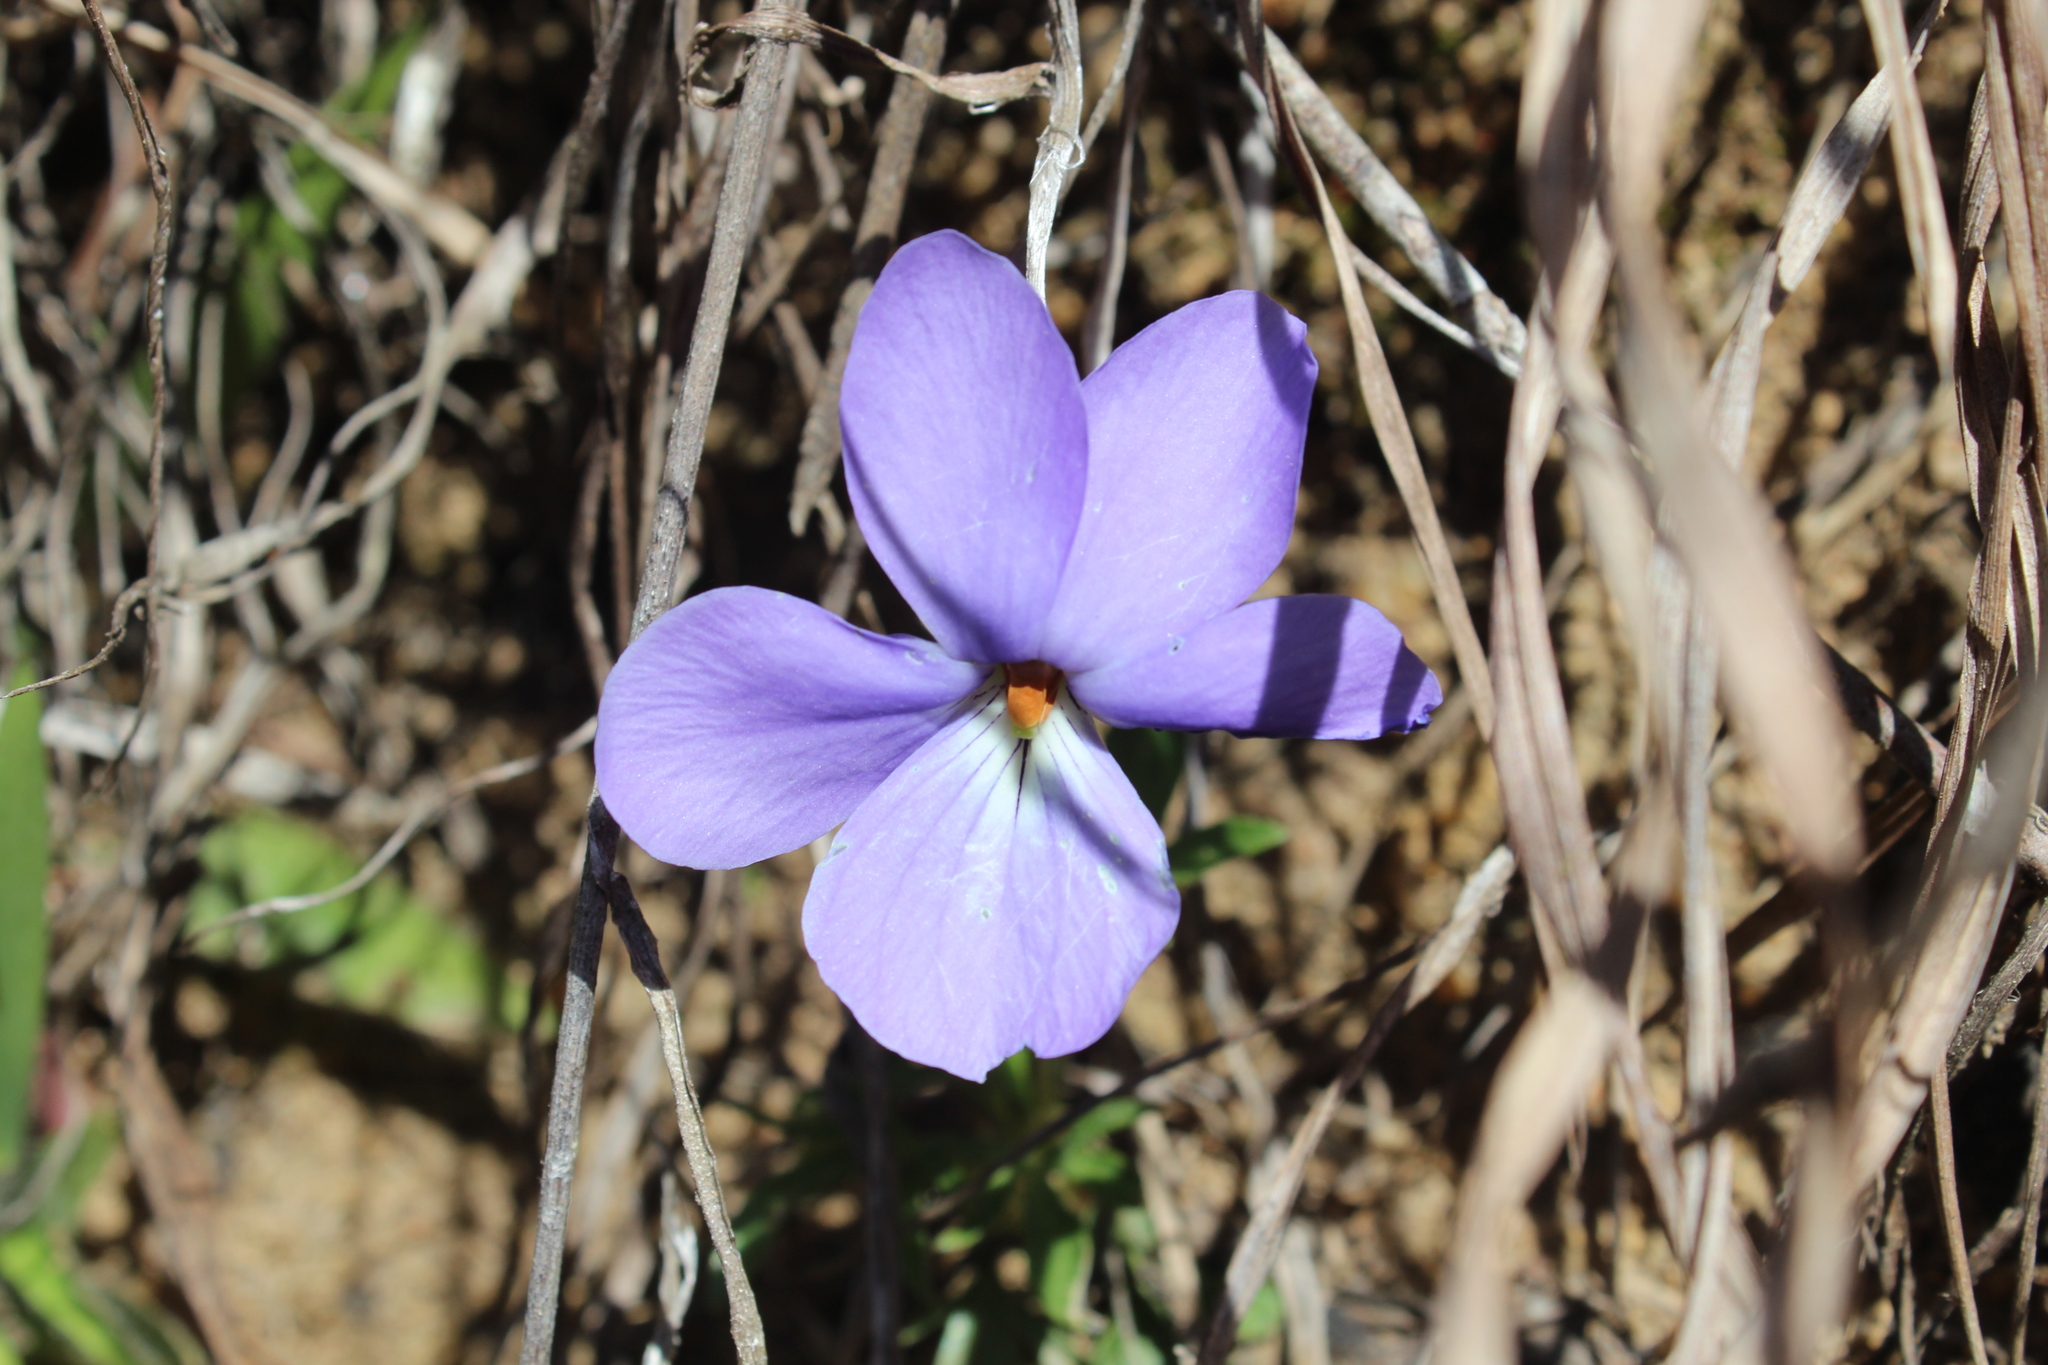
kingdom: Plantae
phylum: Tracheophyta
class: Magnoliopsida
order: Malpighiales
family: Violaceae
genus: Viola
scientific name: Viola pedata
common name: Pansy violet
